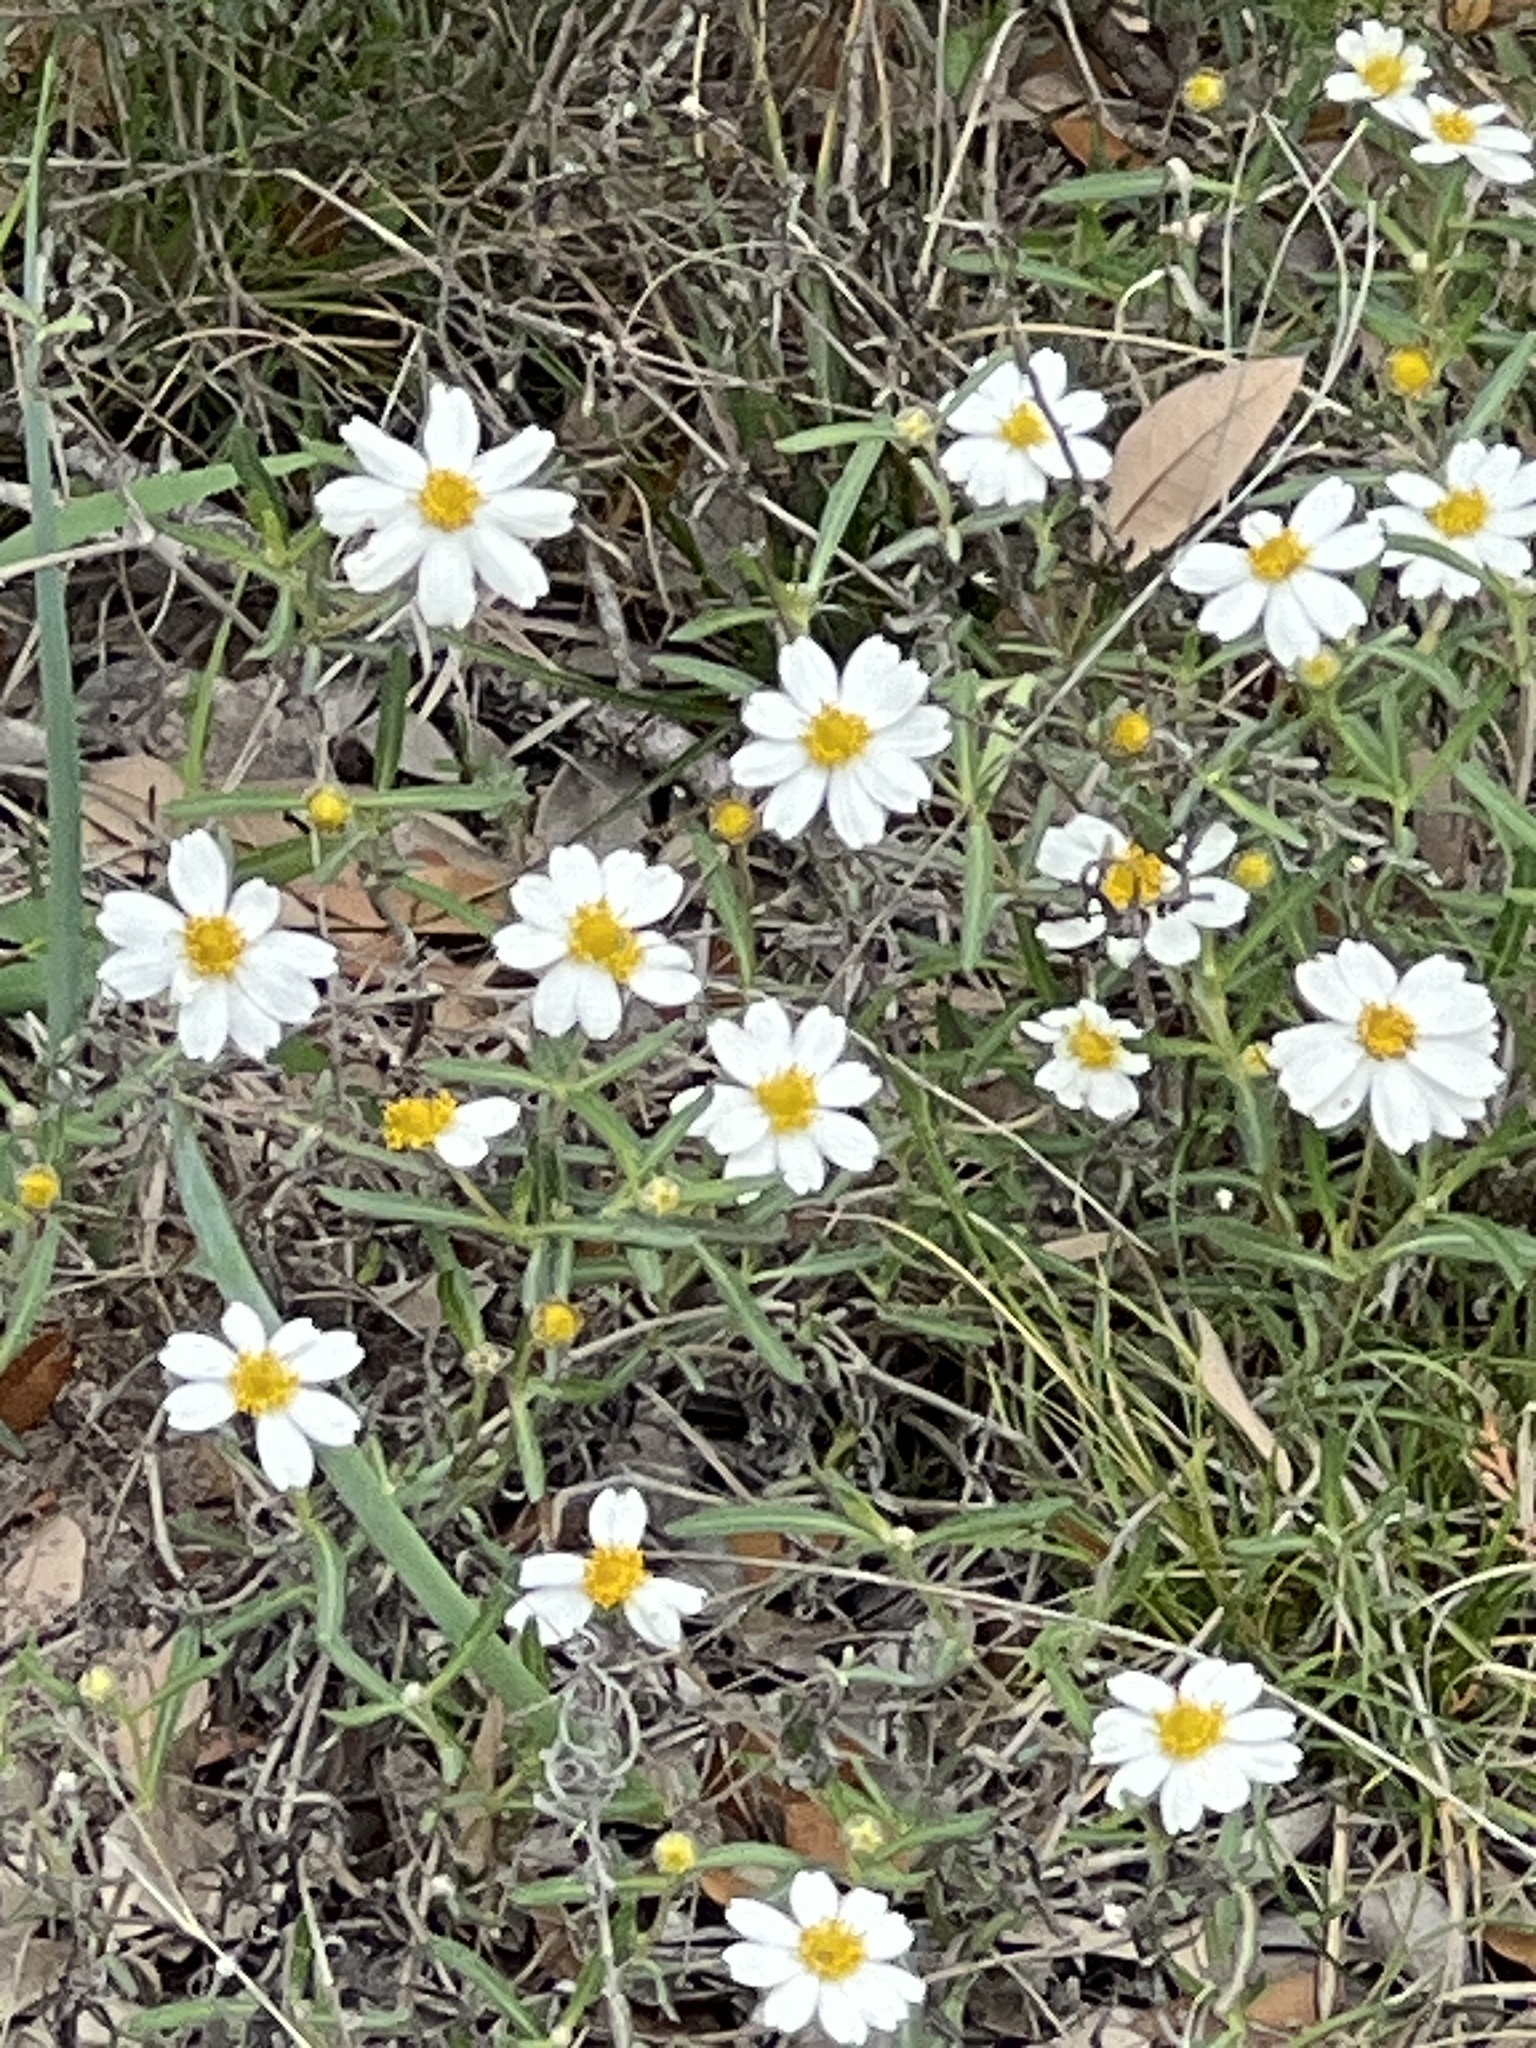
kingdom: Plantae
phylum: Tracheophyta
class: Magnoliopsida
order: Asterales
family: Asteraceae
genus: Melampodium
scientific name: Melampodium leucanthum
